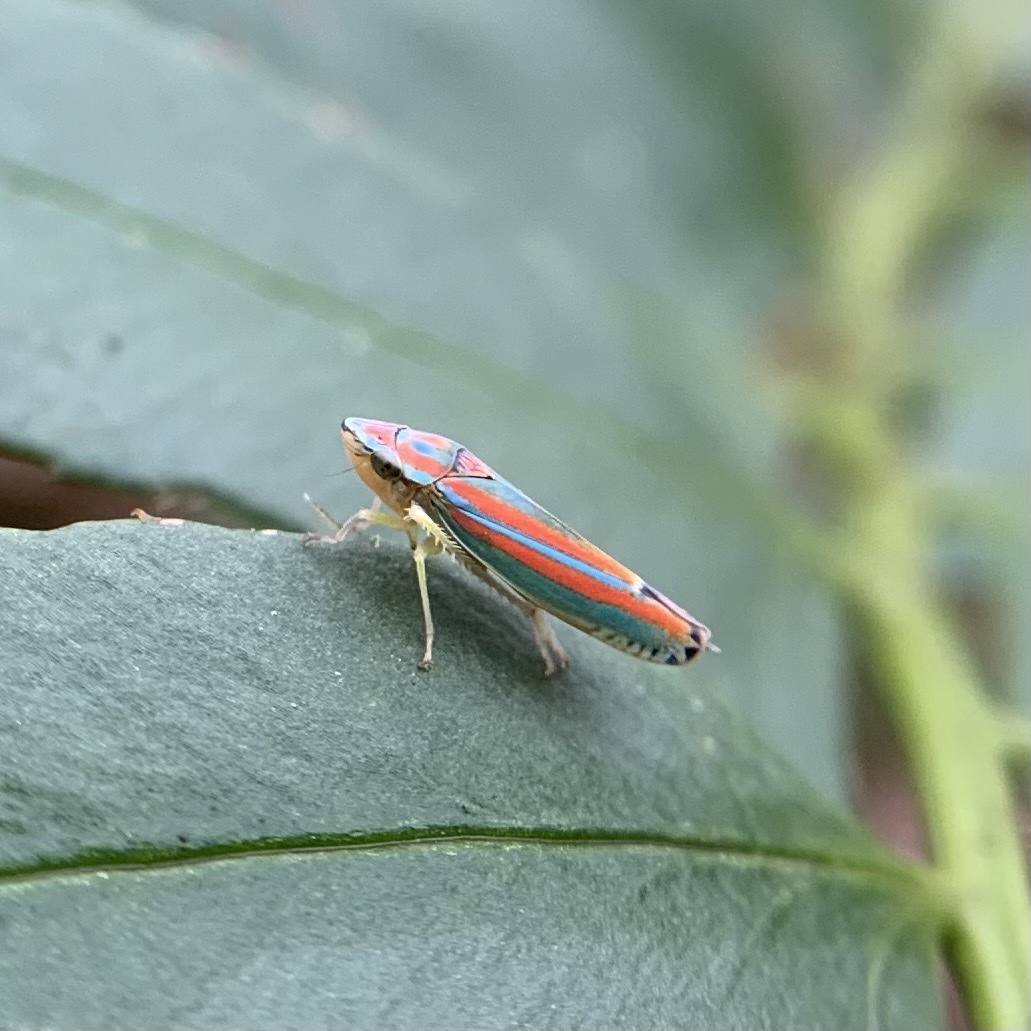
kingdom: Animalia
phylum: Arthropoda
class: Insecta
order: Hemiptera
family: Cicadellidae
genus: Graphocephala
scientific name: Graphocephala versuta
